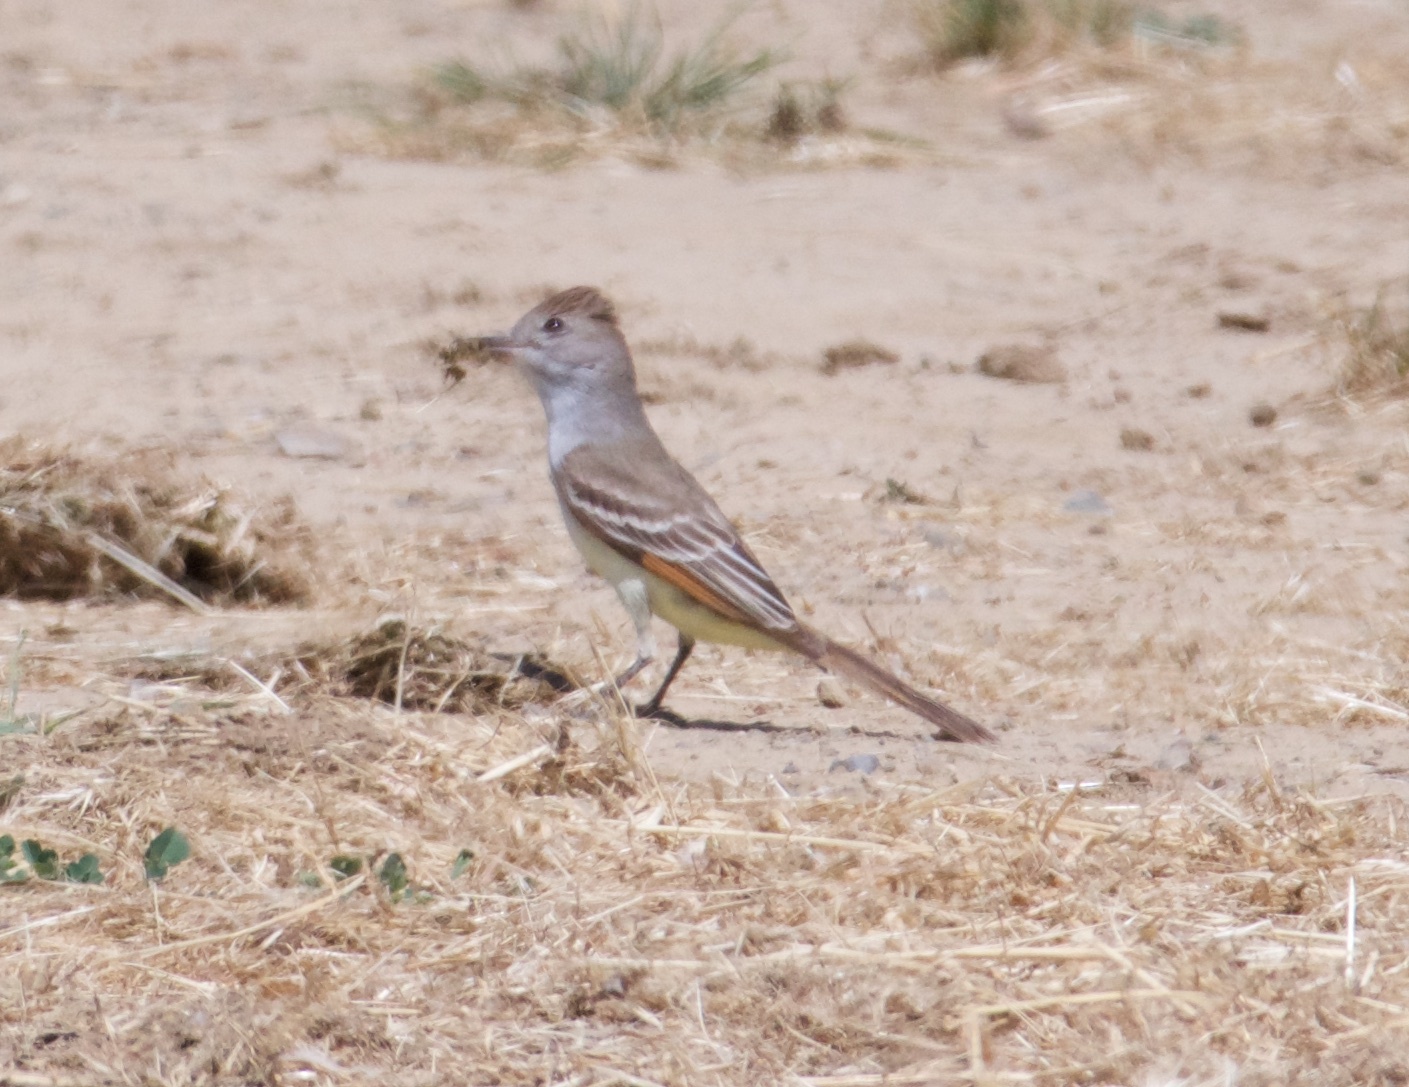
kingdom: Animalia
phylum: Chordata
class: Aves
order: Passeriformes
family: Tyrannidae
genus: Myiarchus
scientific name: Myiarchus cinerascens
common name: Ash-throated flycatcher
